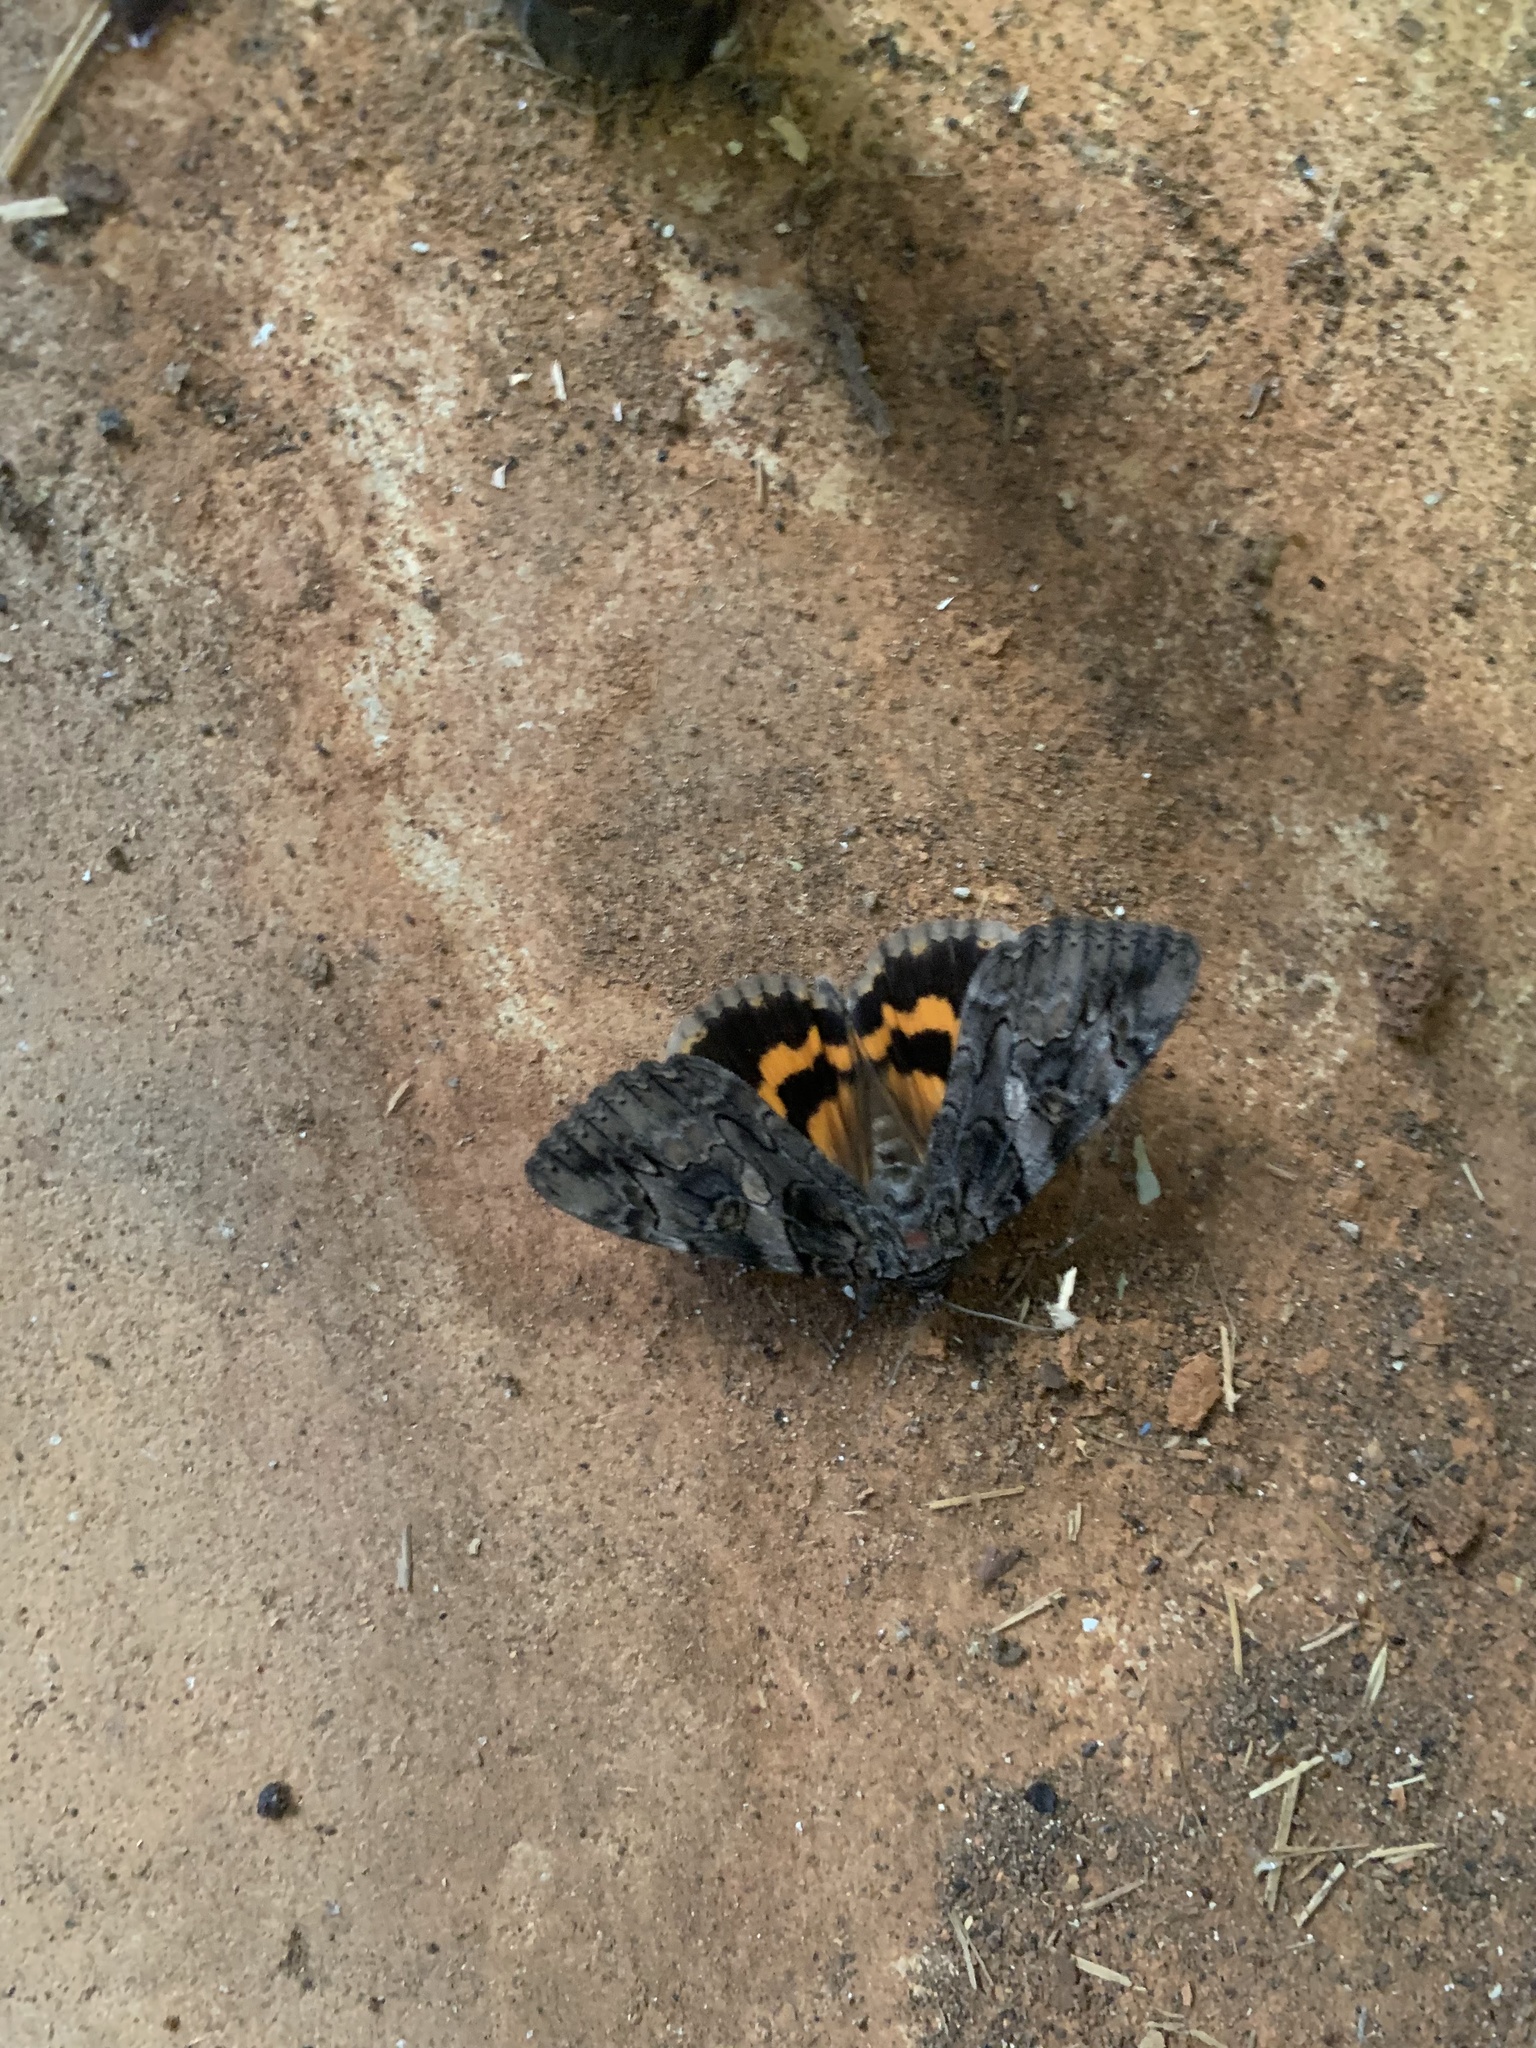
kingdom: Animalia
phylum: Arthropoda
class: Insecta
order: Lepidoptera
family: Erebidae
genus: Catocala
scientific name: Catocala piatrix
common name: The penitent underwing
